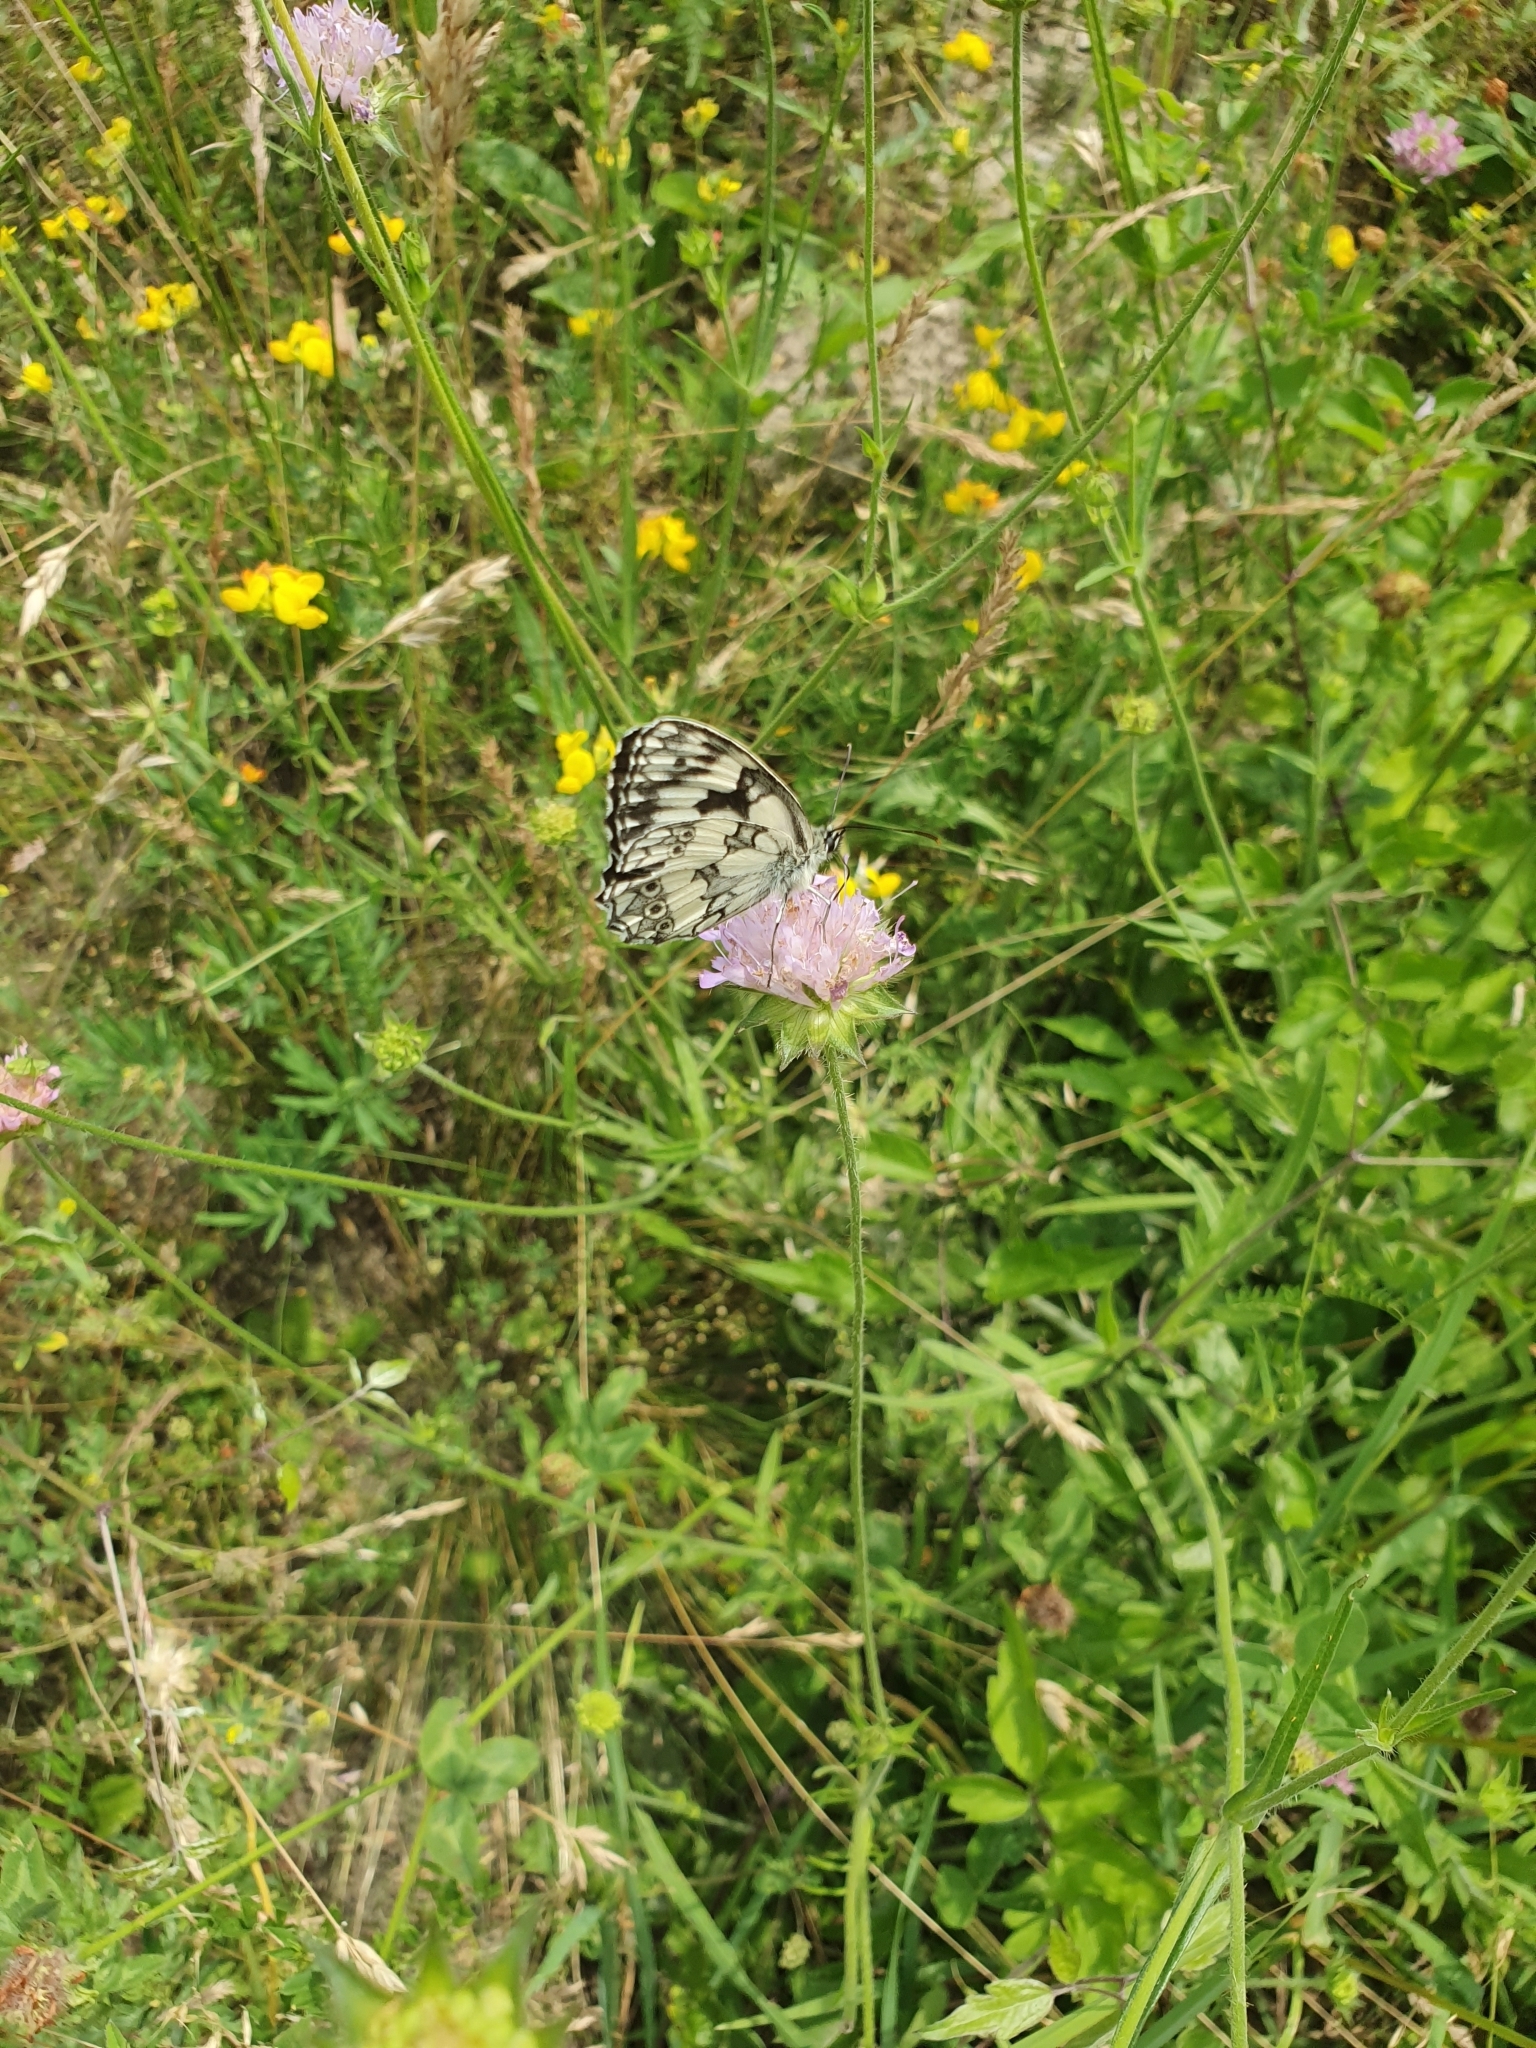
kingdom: Animalia
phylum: Arthropoda
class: Insecta
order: Lepidoptera
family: Nymphalidae
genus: Melanargia
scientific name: Melanargia galathea
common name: Marbled white
